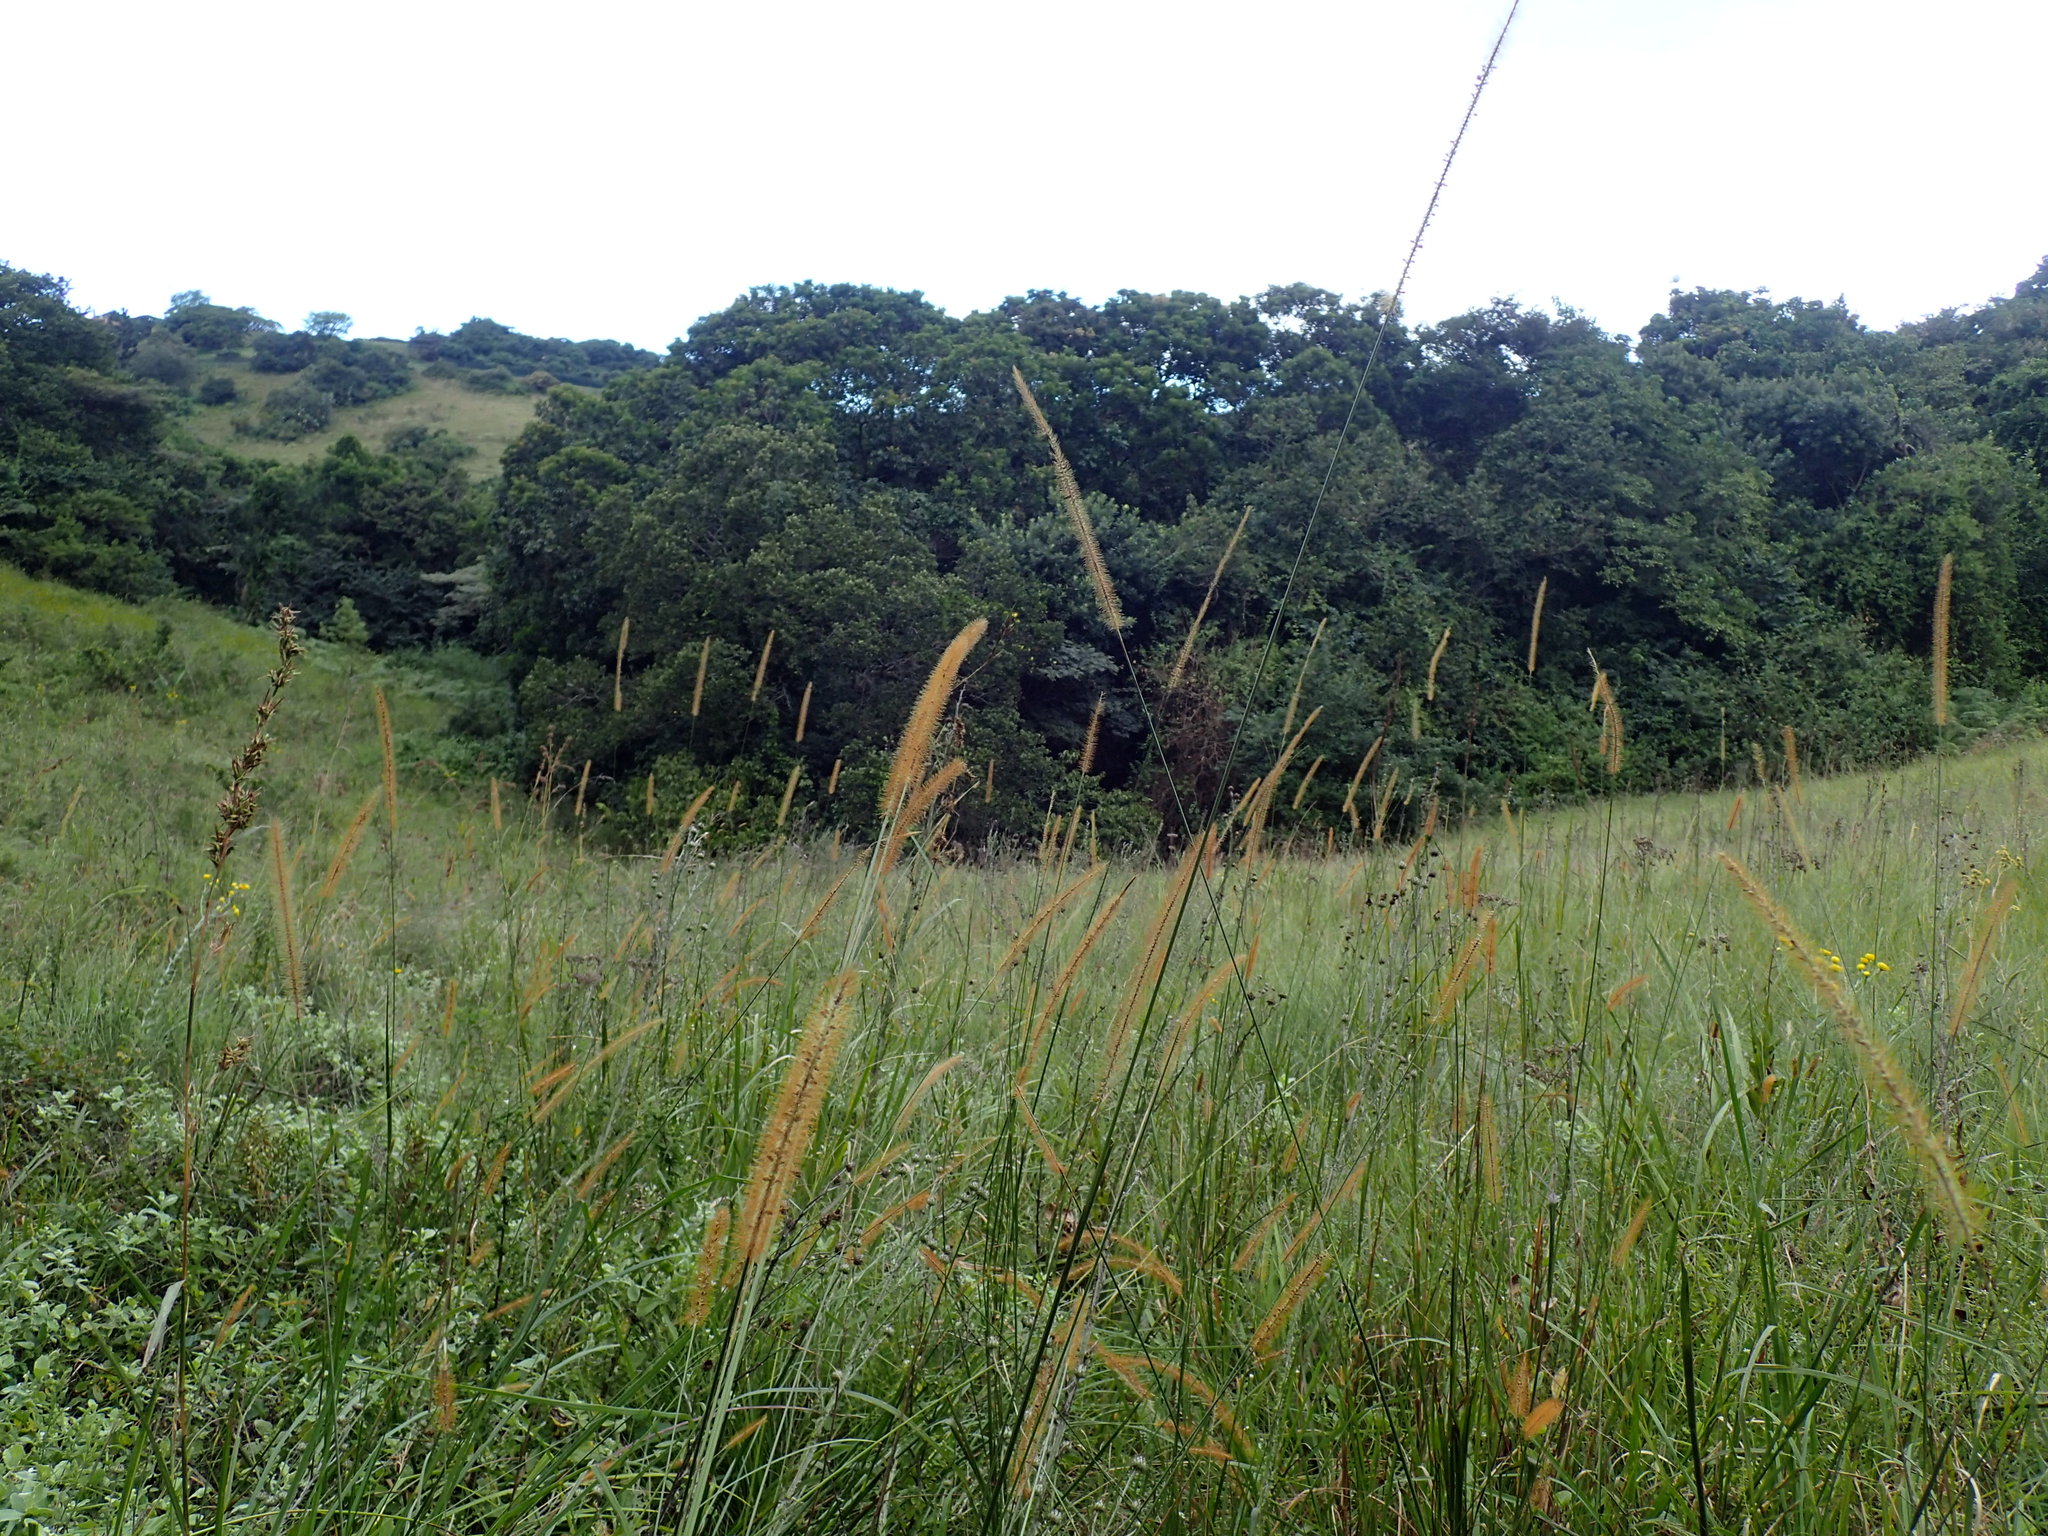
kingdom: Plantae
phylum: Tracheophyta
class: Liliopsida
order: Poales
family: Poaceae
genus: Setaria
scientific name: Setaria sphacelata
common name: African bristlegrass
